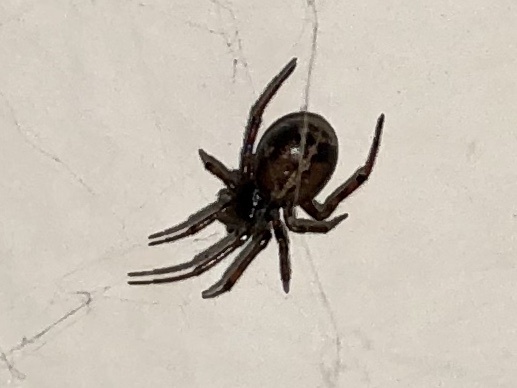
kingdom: Animalia
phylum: Arthropoda
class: Arachnida
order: Araneae
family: Theridiidae
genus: Steatoda
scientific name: Steatoda bipunctata
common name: False widow
